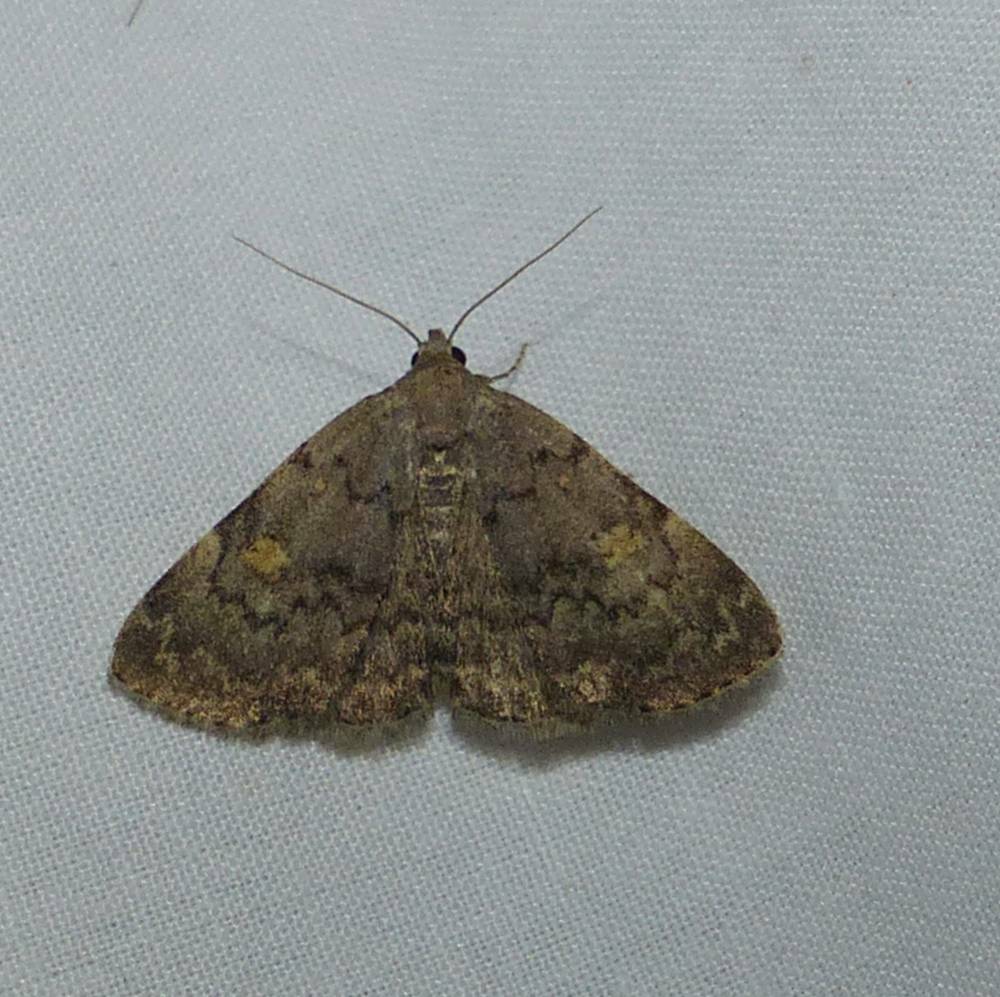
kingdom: Animalia
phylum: Arthropoda
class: Insecta
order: Lepidoptera
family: Erebidae
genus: Idia
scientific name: Idia aemula
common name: Common idia moth
